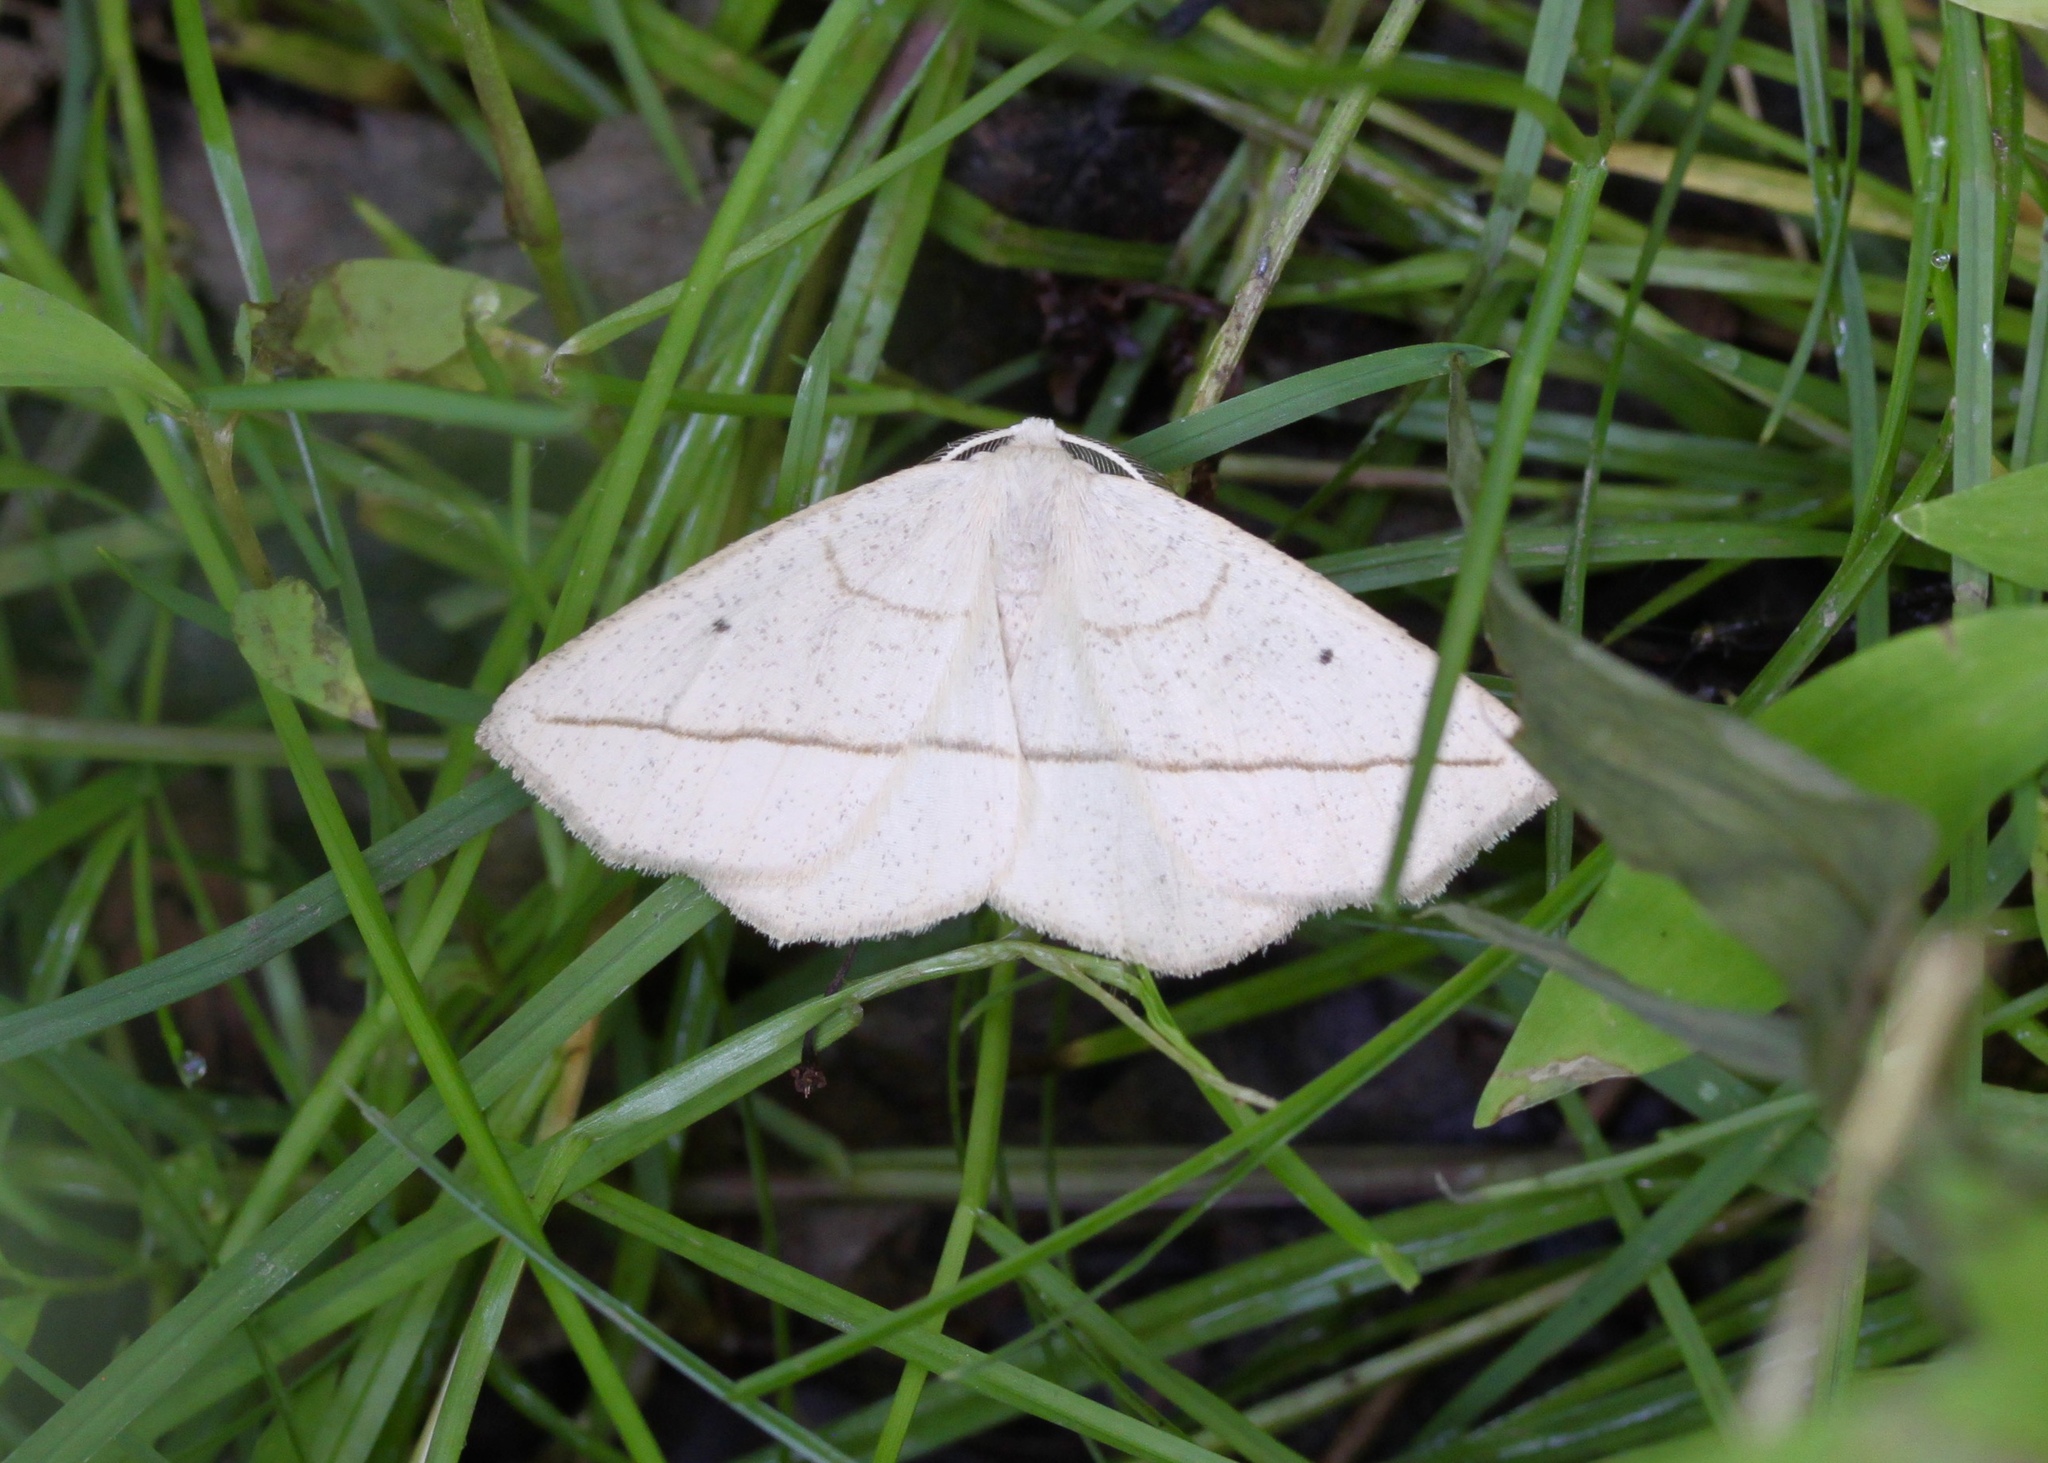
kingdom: Animalia
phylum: Arthropoda
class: Insecta
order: Lepidoptera
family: Geometridae
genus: Eusarca
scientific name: Eusarca confusaria
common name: Confused eusarca
